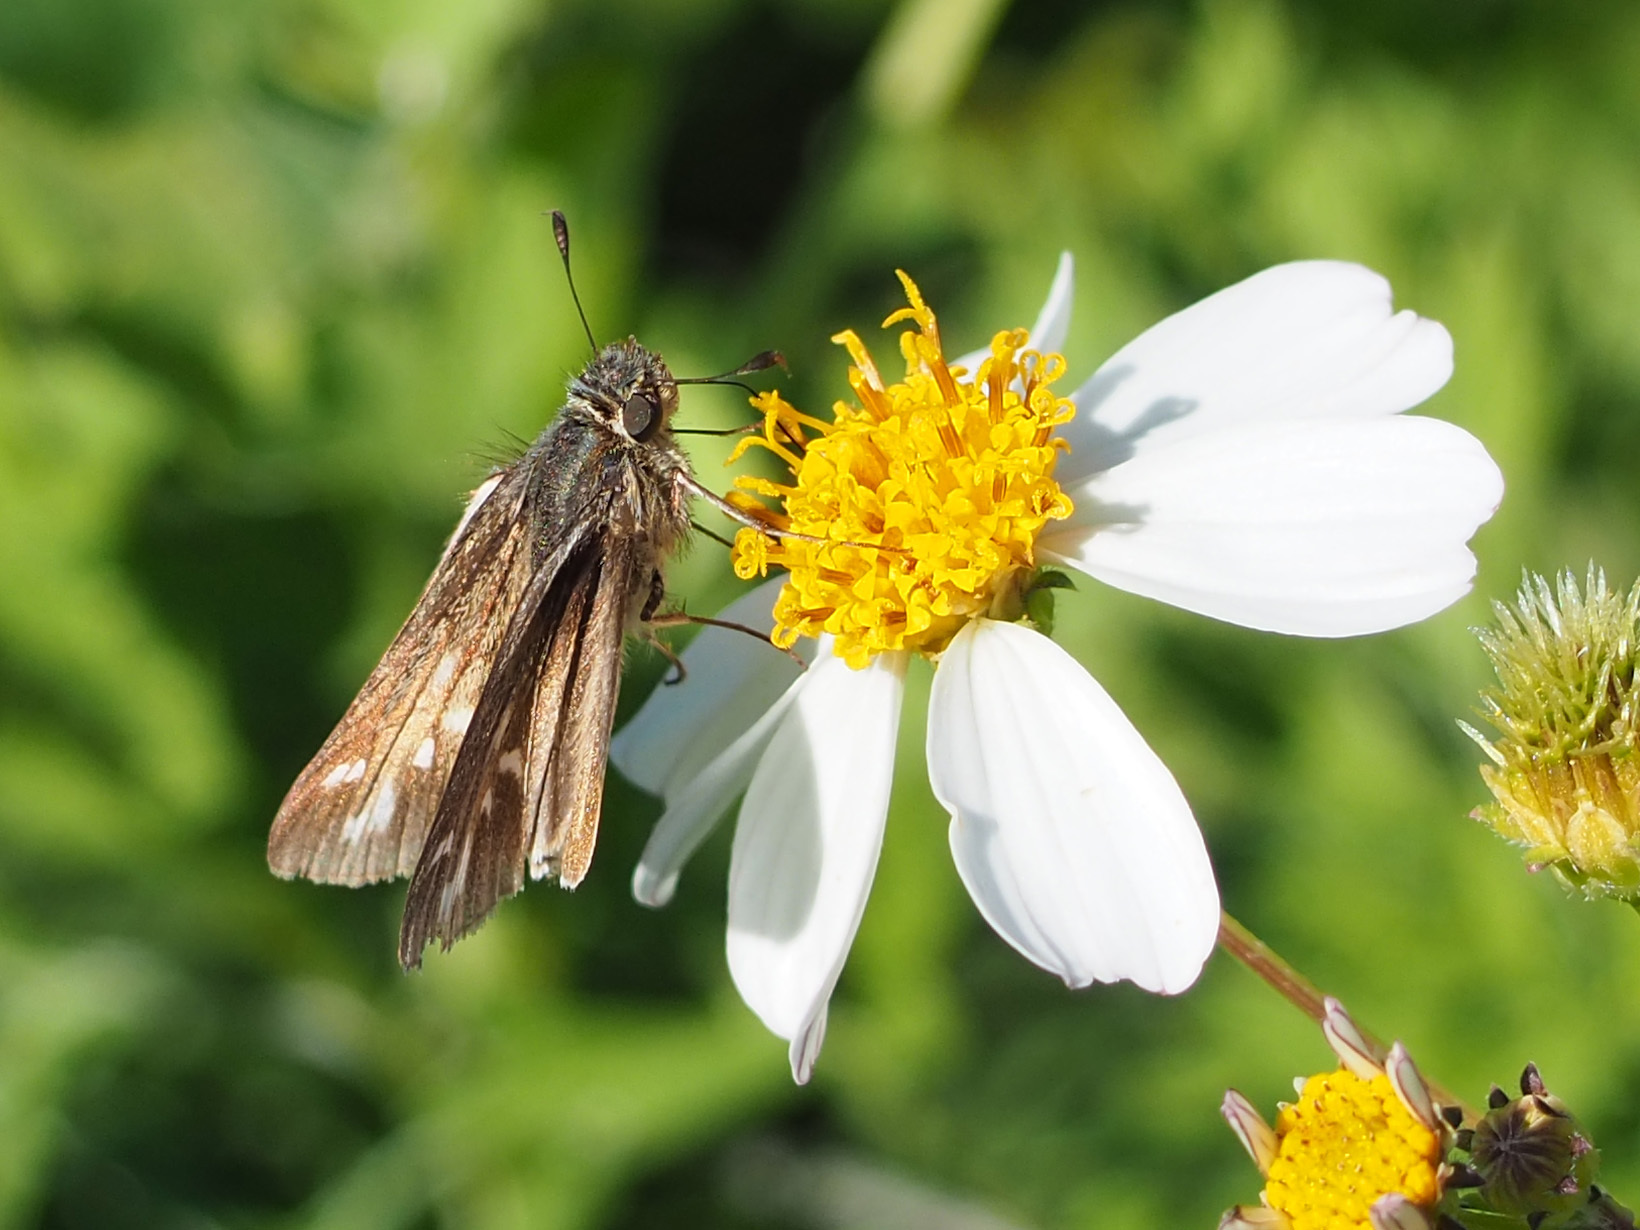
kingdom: Animalia
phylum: Arthropoda
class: Insecta
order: Lepidoptera
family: Hesperiidae
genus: Panoquina
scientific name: Panoquina panoquin
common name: Salt marsh skipper
